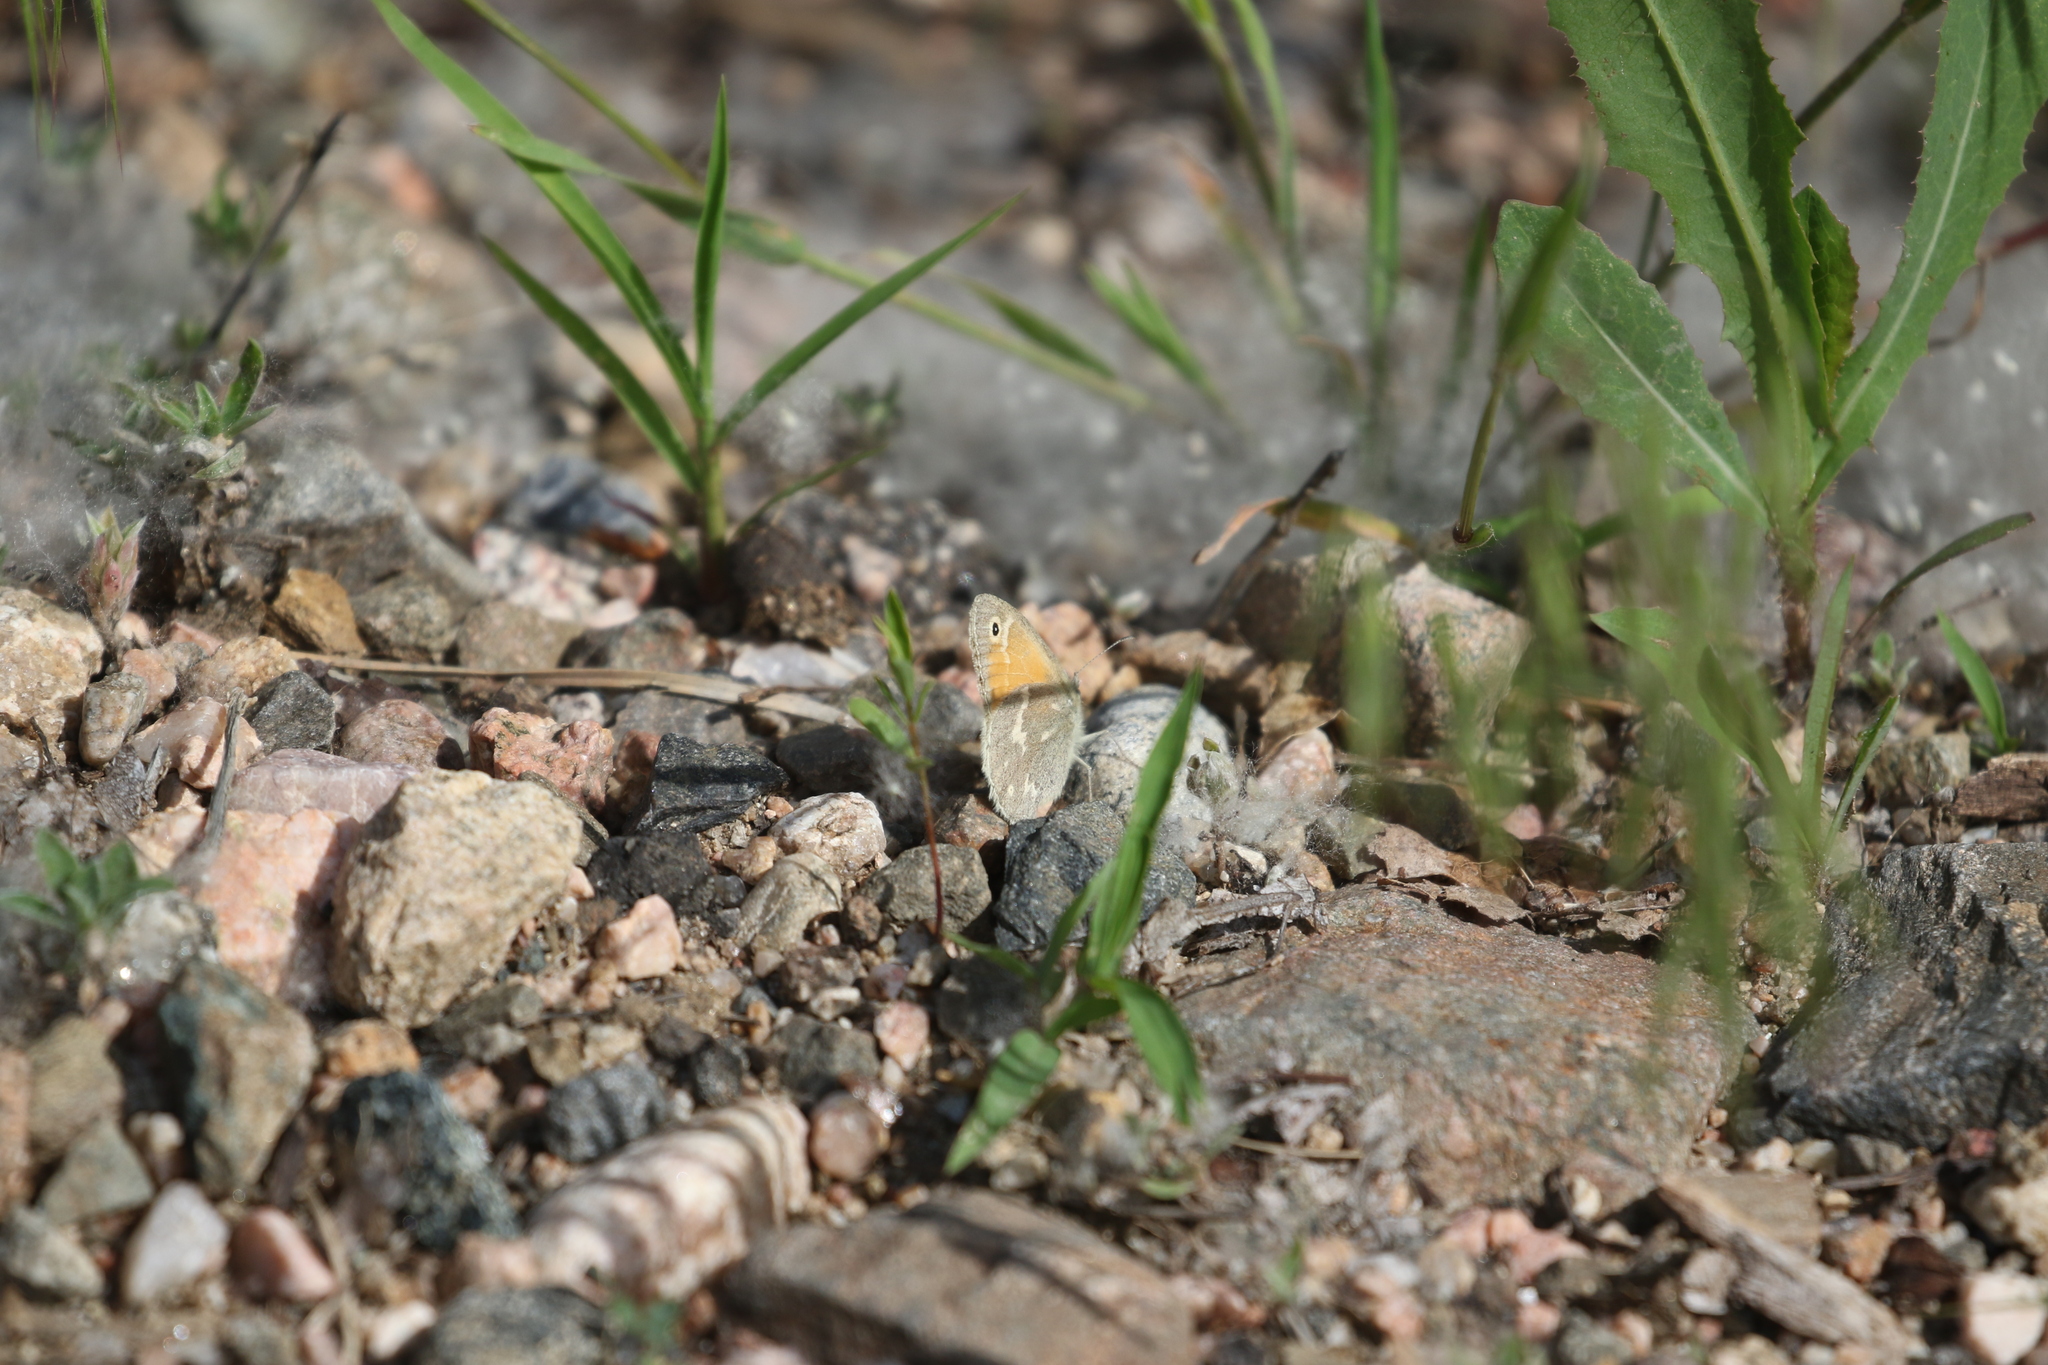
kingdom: Animalia
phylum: Arthropoda
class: Insecta
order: Lepidoptera
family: Nymphalidae
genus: Coenonympha
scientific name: Coenonympha california
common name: Common ringlet
